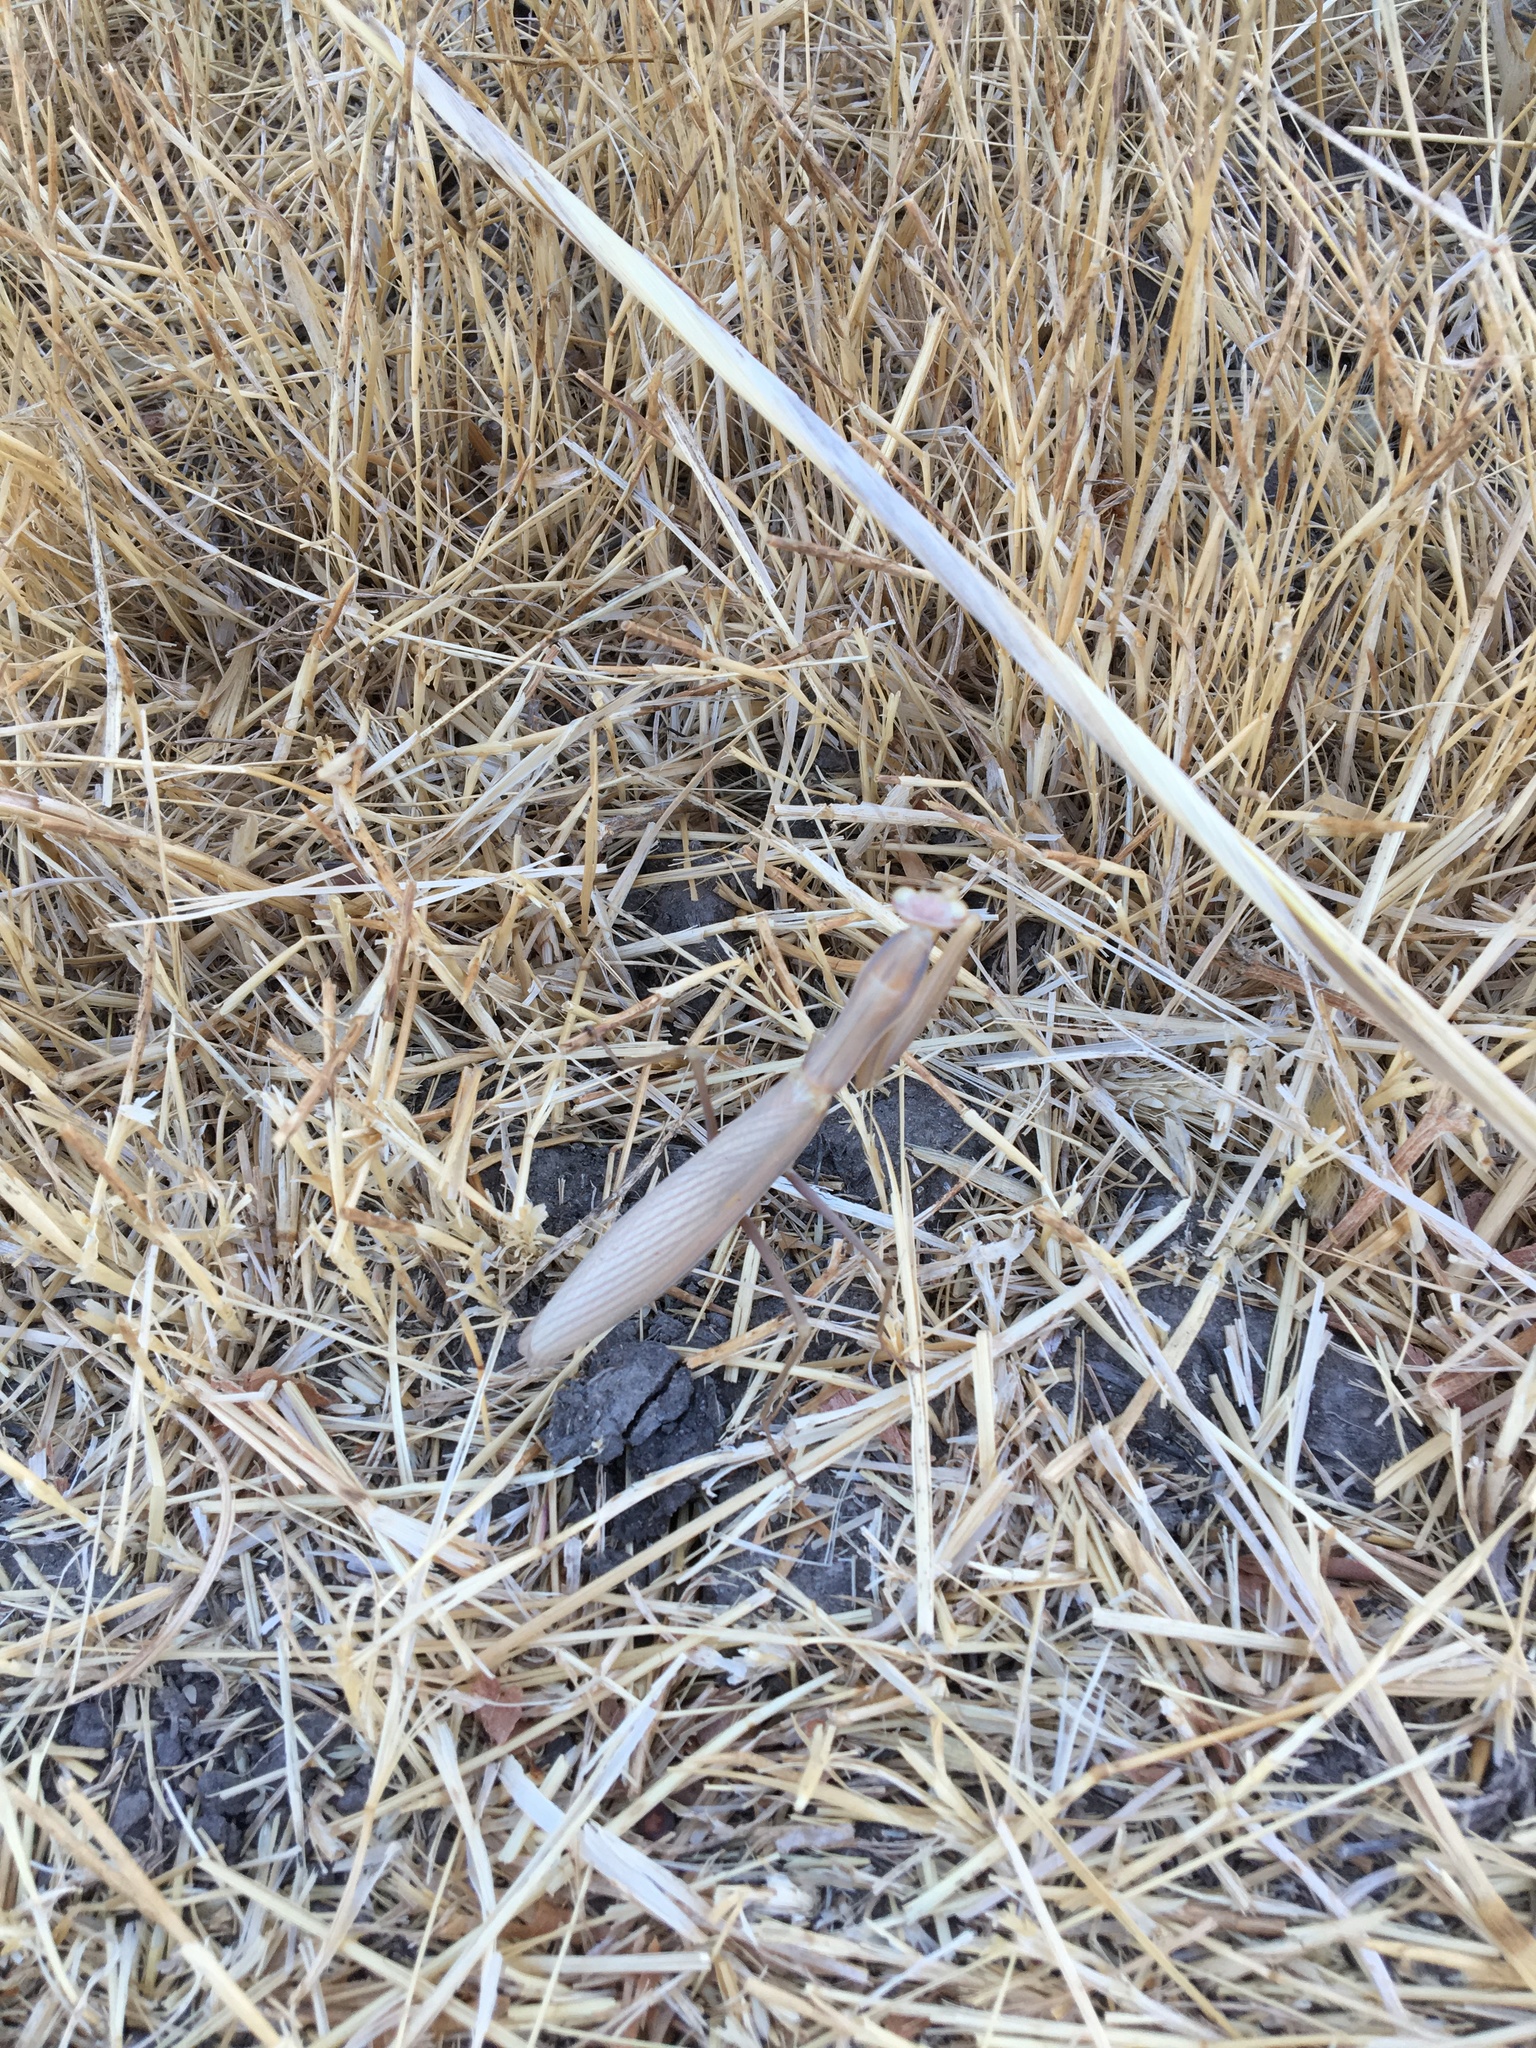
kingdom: Animalia
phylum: Arthropoda
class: Insecta
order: Mantodea
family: Mantidae
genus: Mantis
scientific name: Mantis religiosa
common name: Praying mantis
